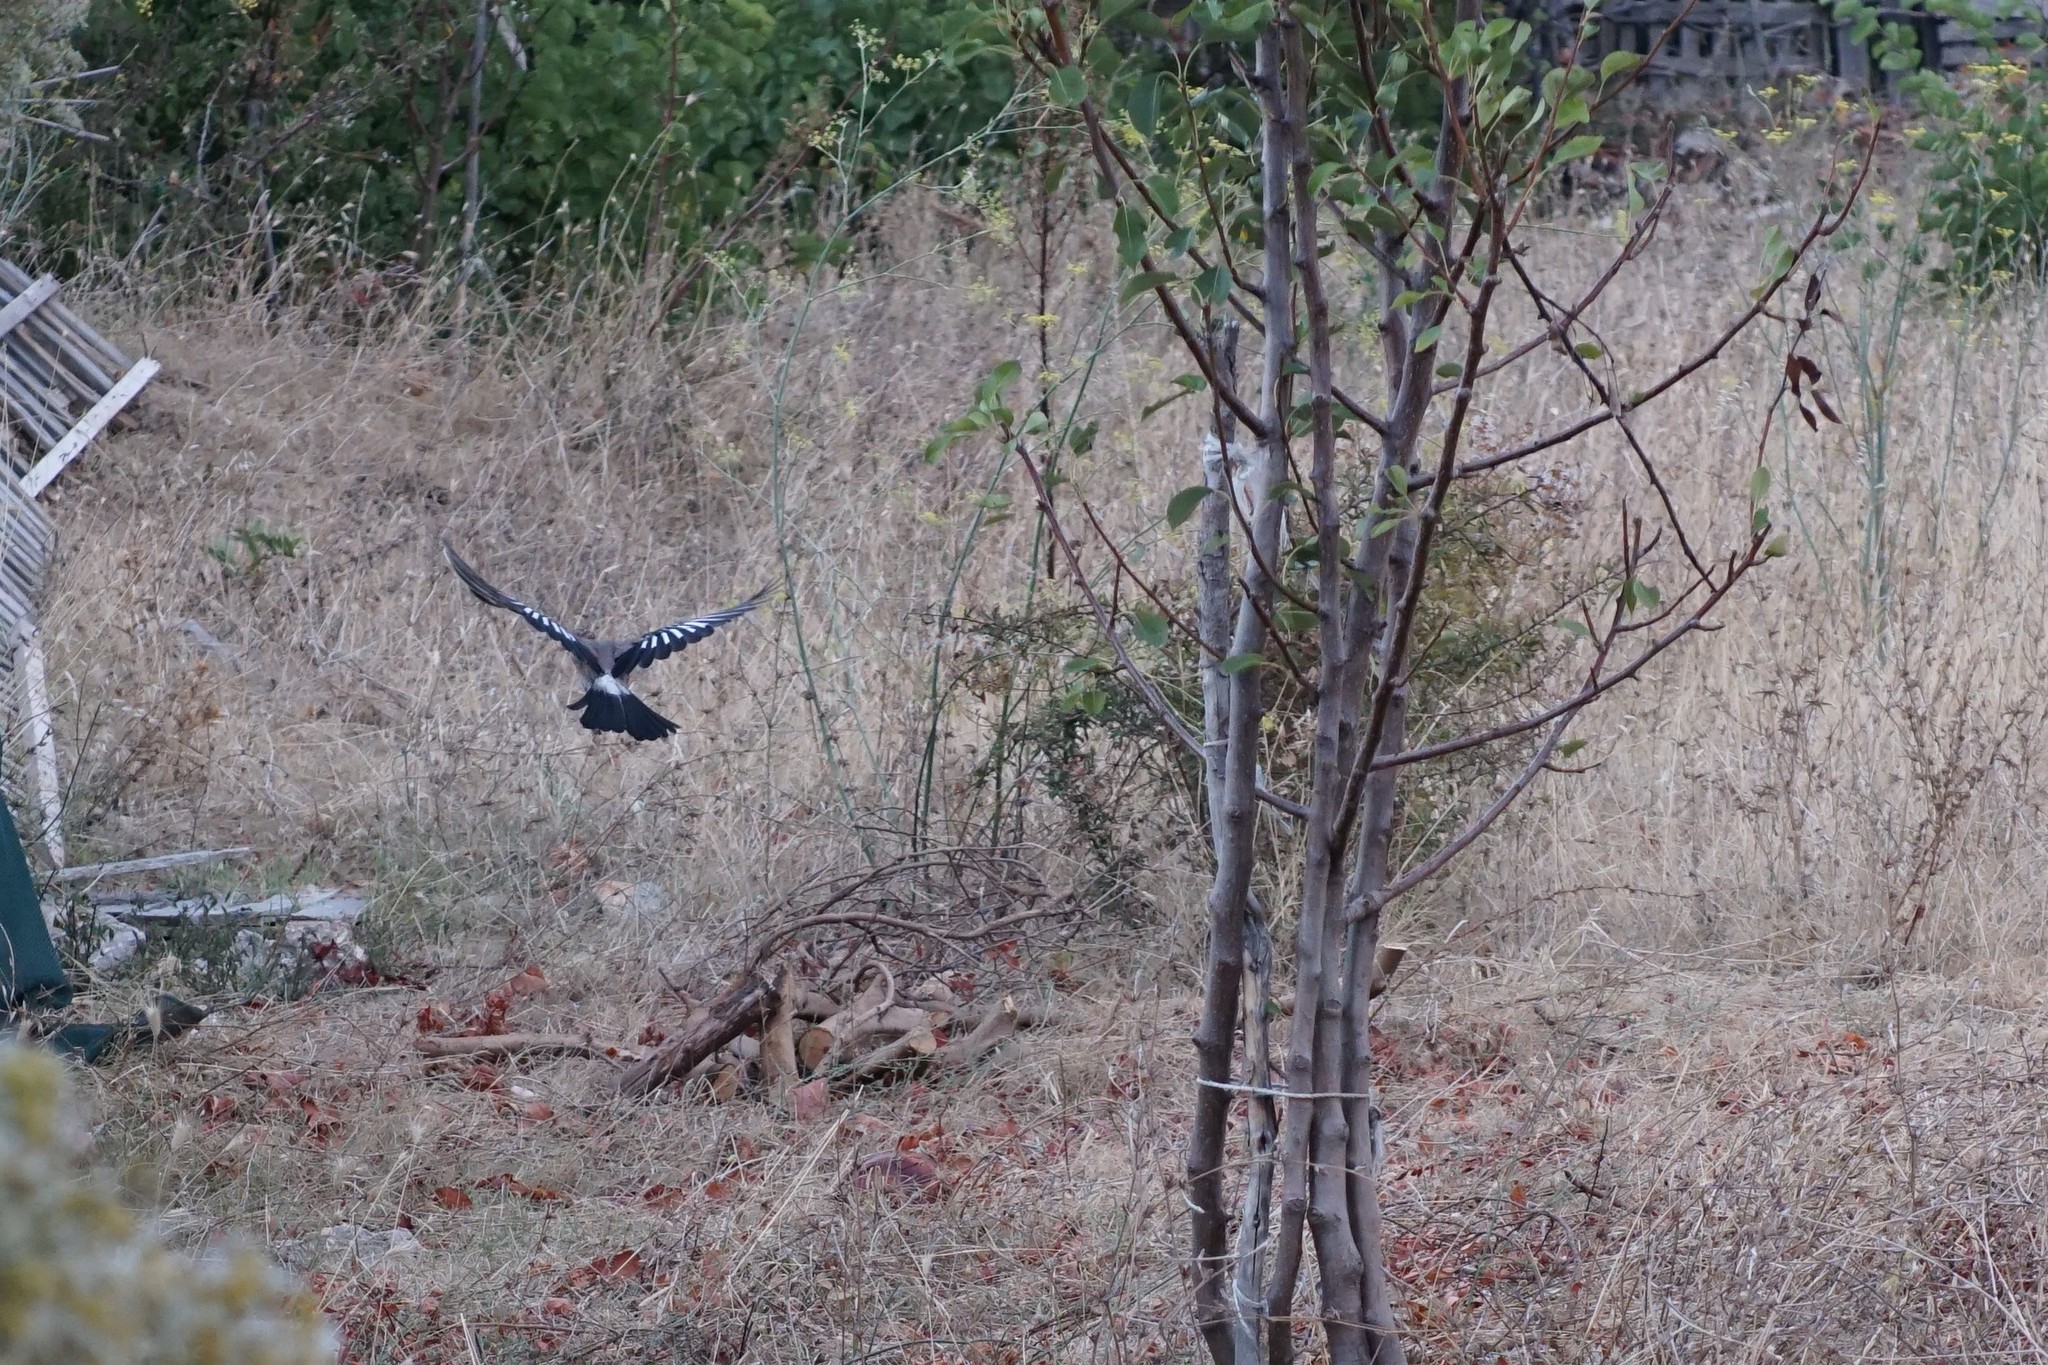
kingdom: Animalia
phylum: Chordata
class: Aves
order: Passeriformes
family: Corvidae
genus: Garrulus
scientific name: Garrulus glandarius
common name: Eurasian jay
